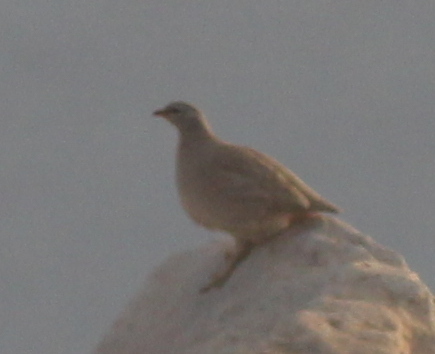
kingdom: Animalia
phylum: Chordata
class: Aves
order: Galliformes
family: Phasianidae
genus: Ammoperdix
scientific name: Ammoperdix heyi
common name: Sand partridge
